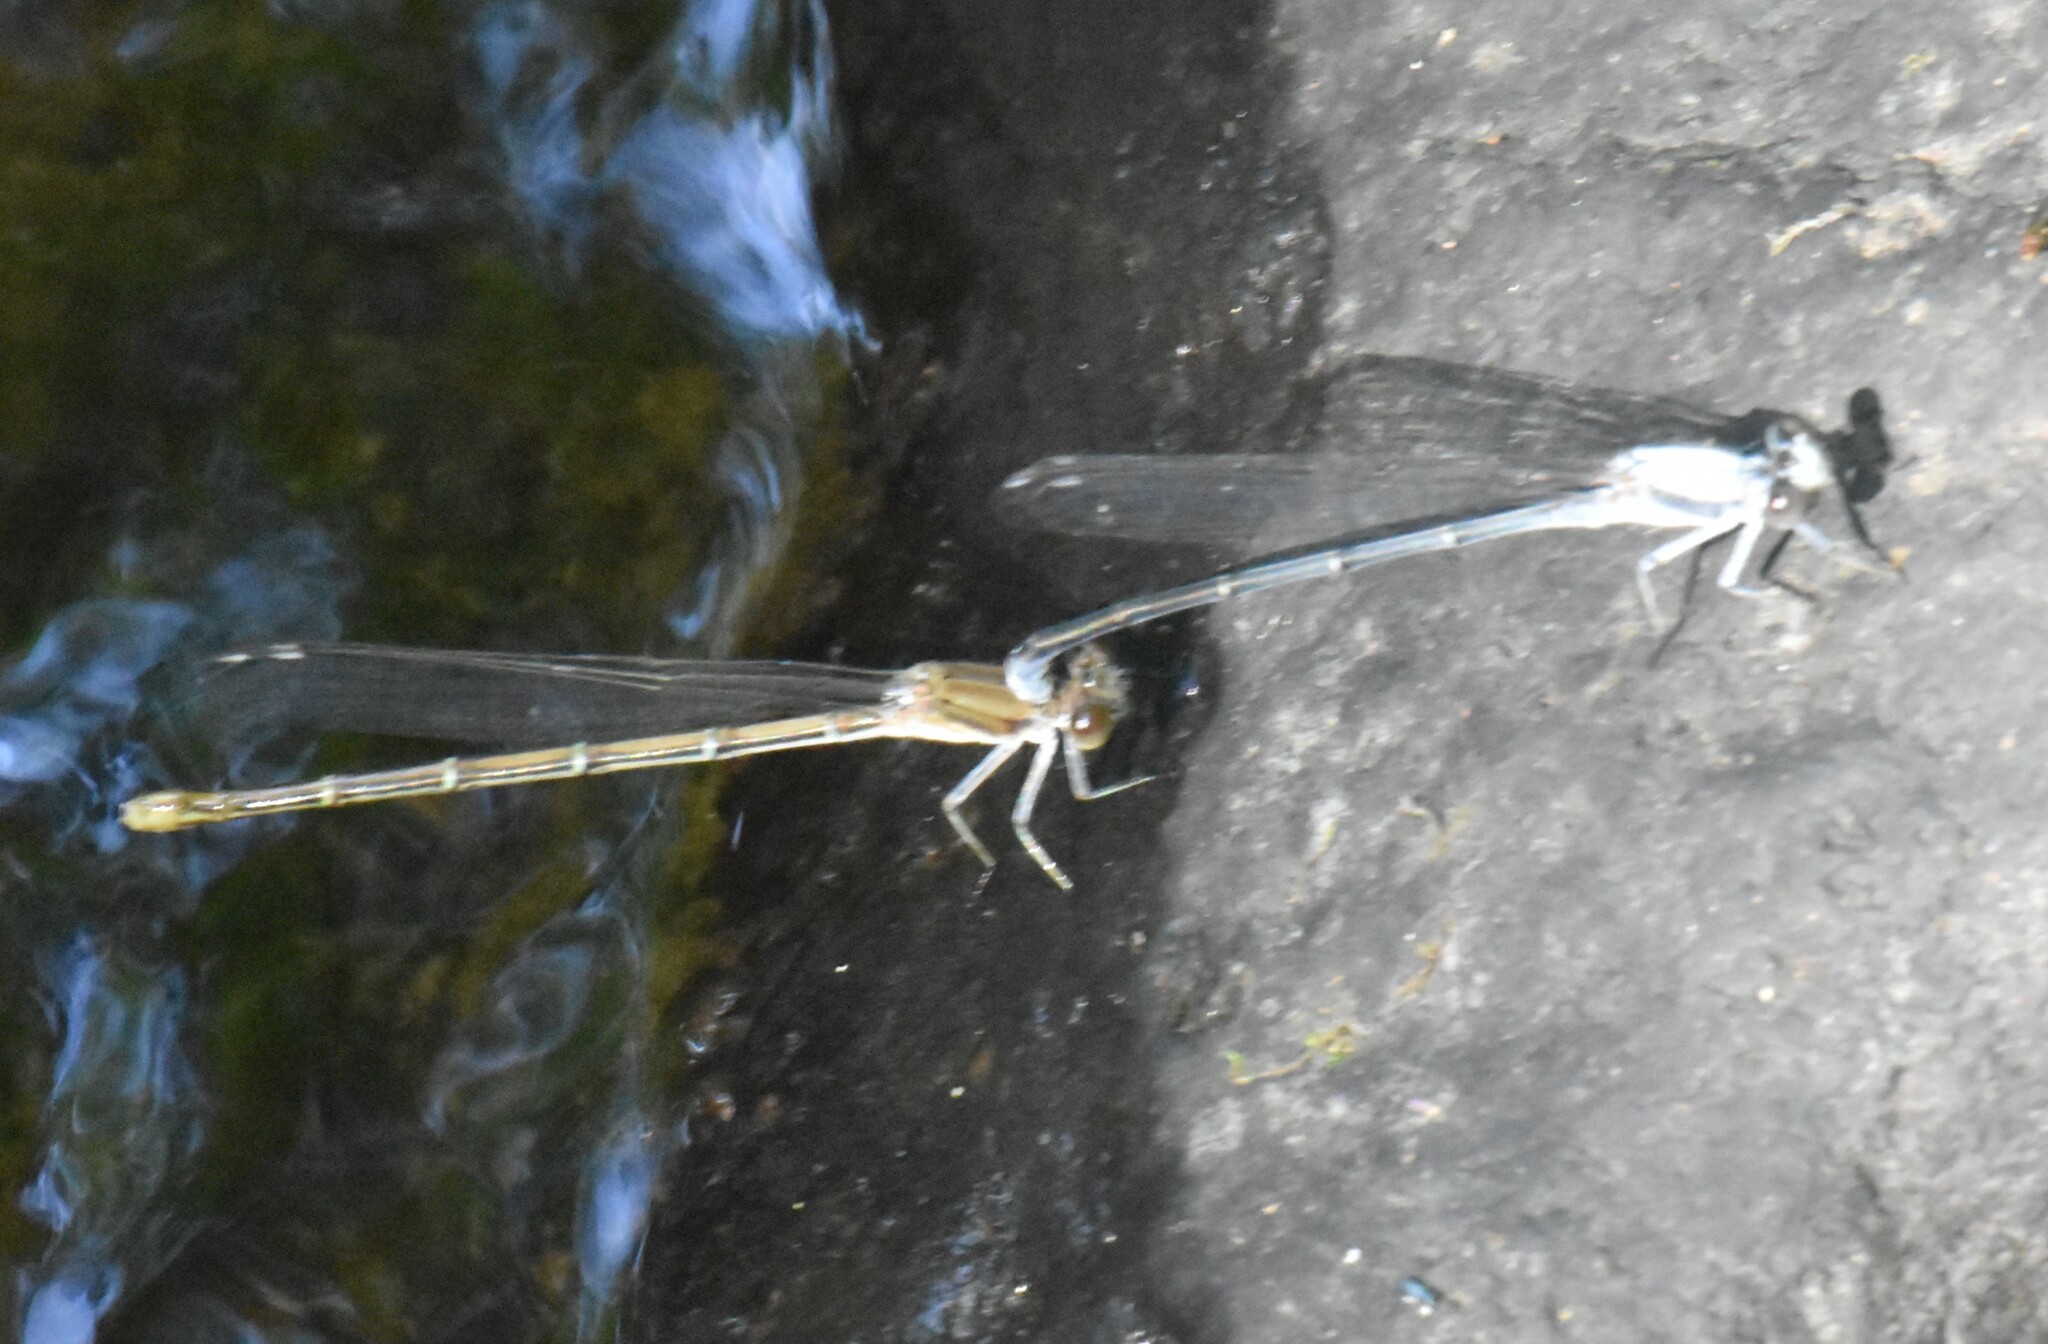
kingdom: Animalia
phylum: Arthropoda
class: Insecta
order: Odonata
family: Coenagrionidae
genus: Argia
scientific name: Argia moesta
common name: Powdered dancer
